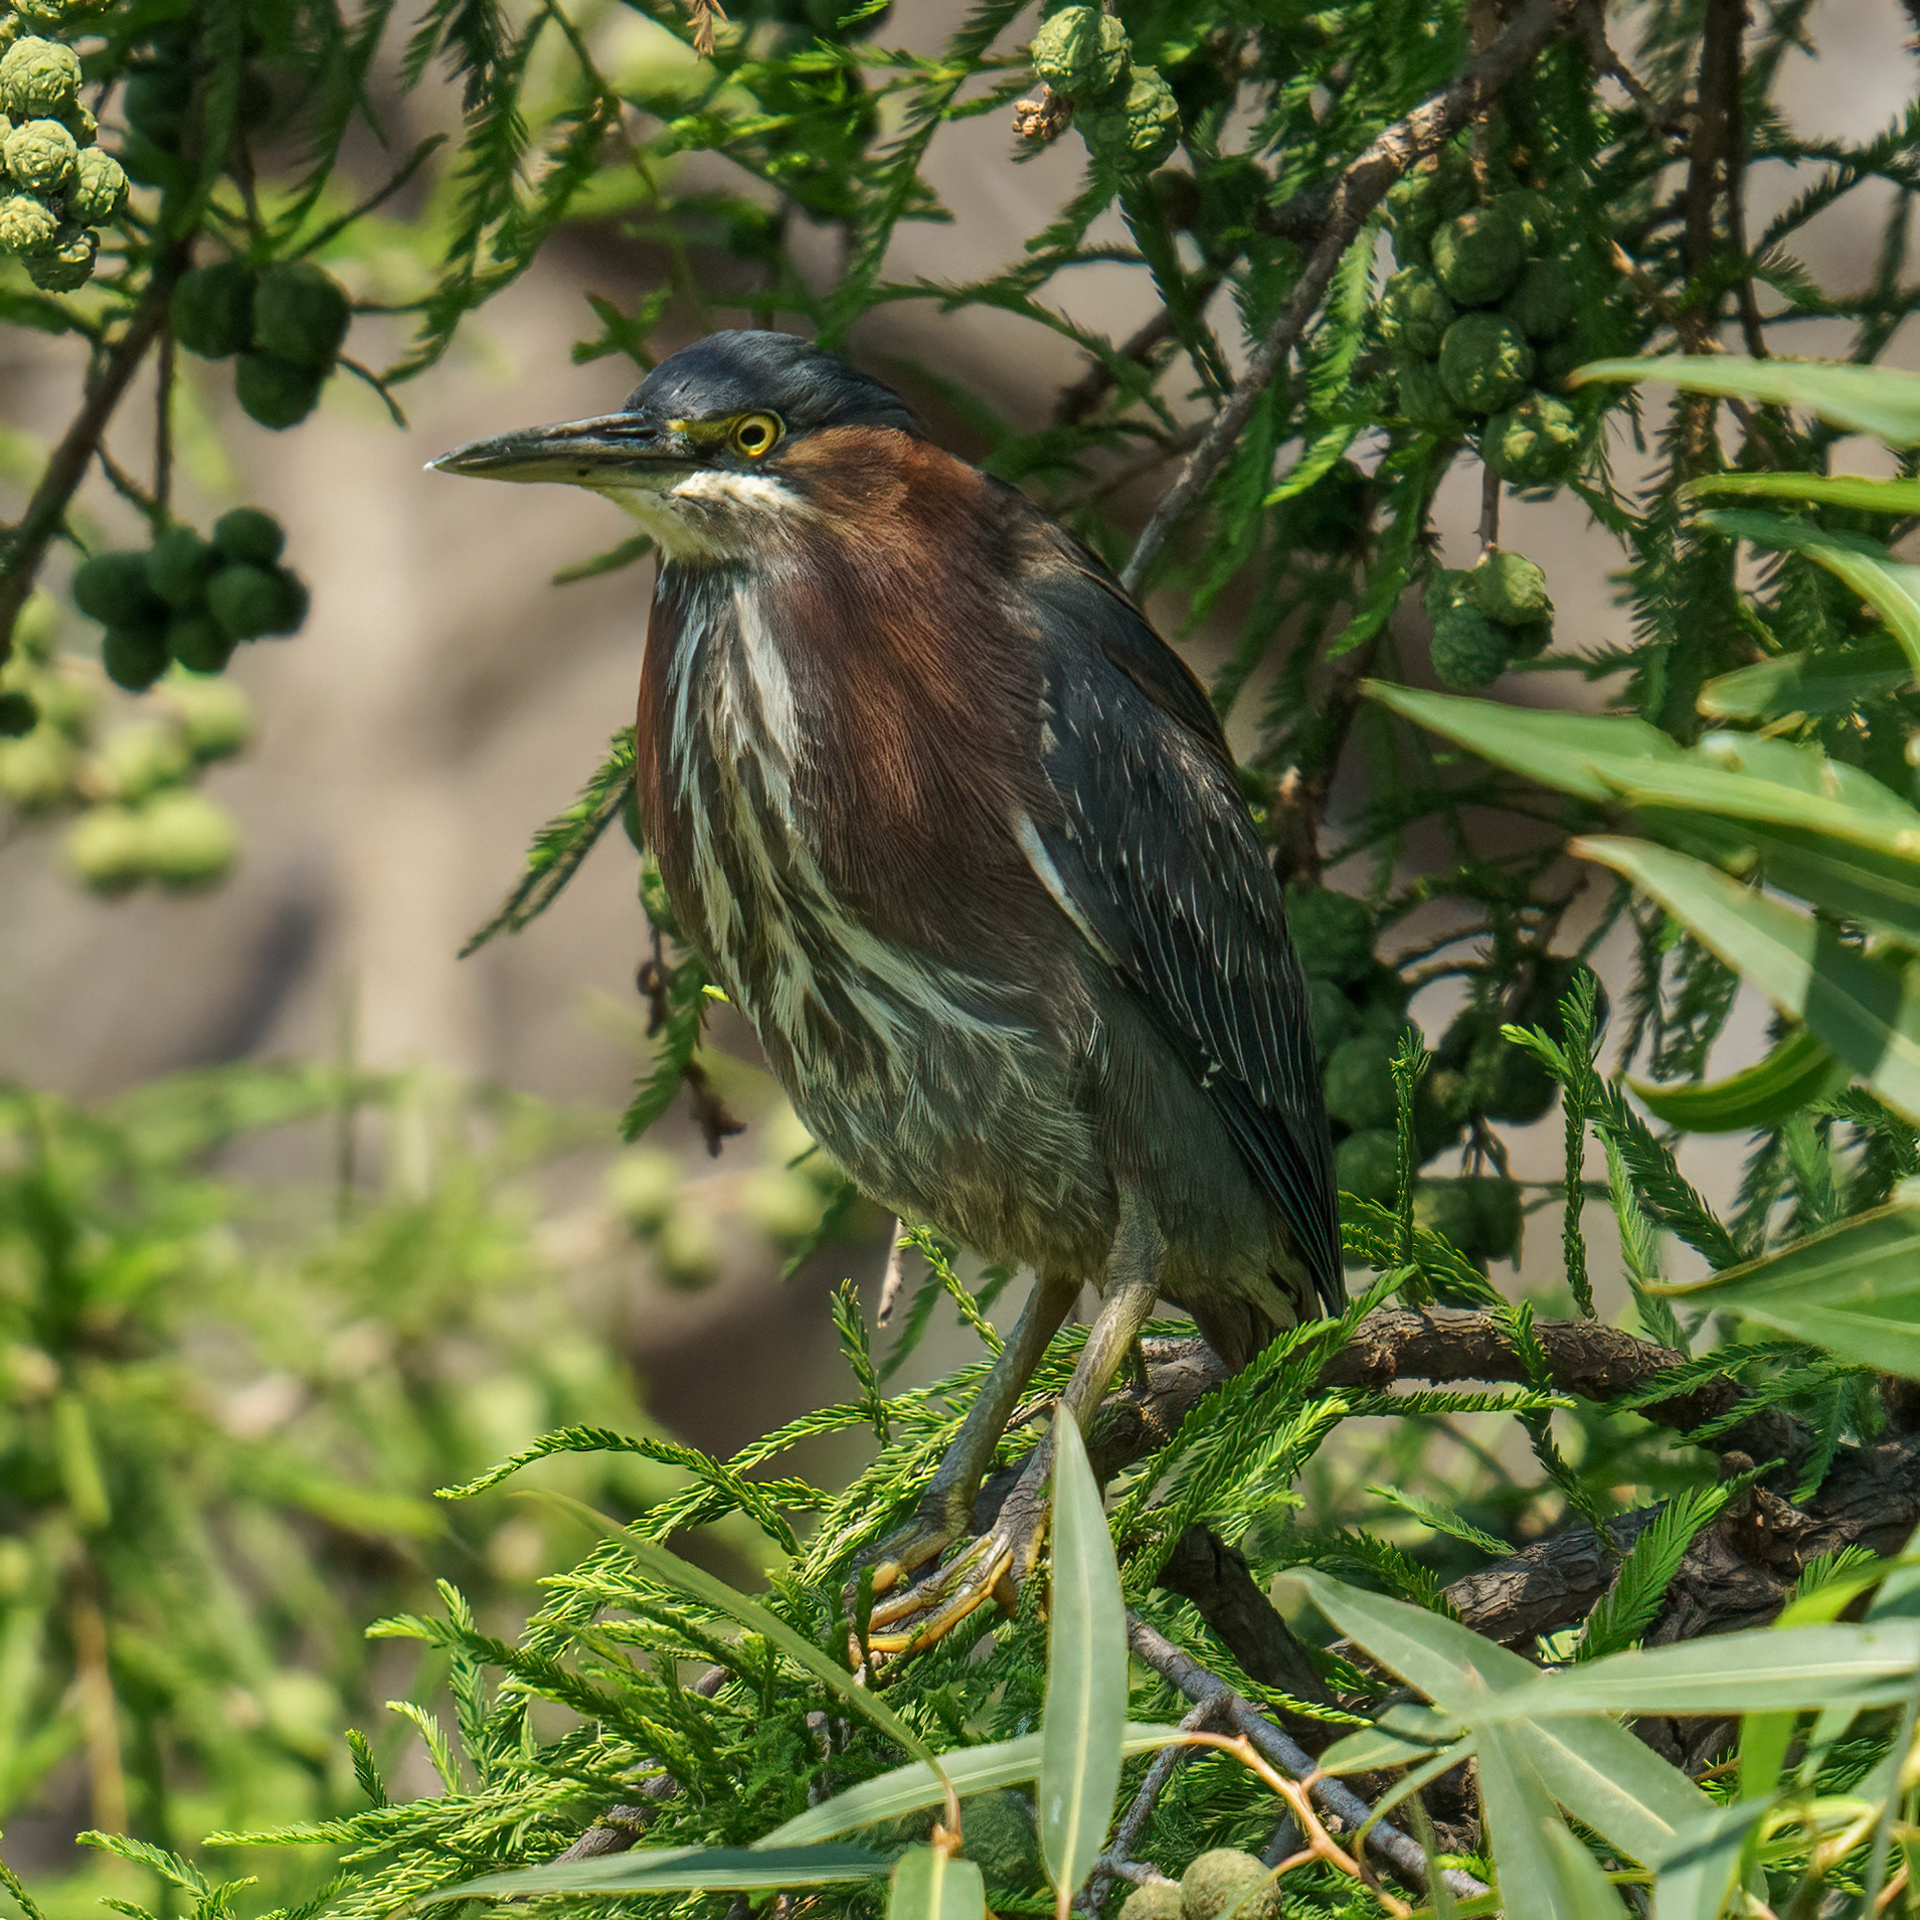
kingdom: Animalia
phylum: Chordata
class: Aves
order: Pelecaniformes
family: Ardeidae
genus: Butorides
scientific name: Butorides virescens
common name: Green heron
